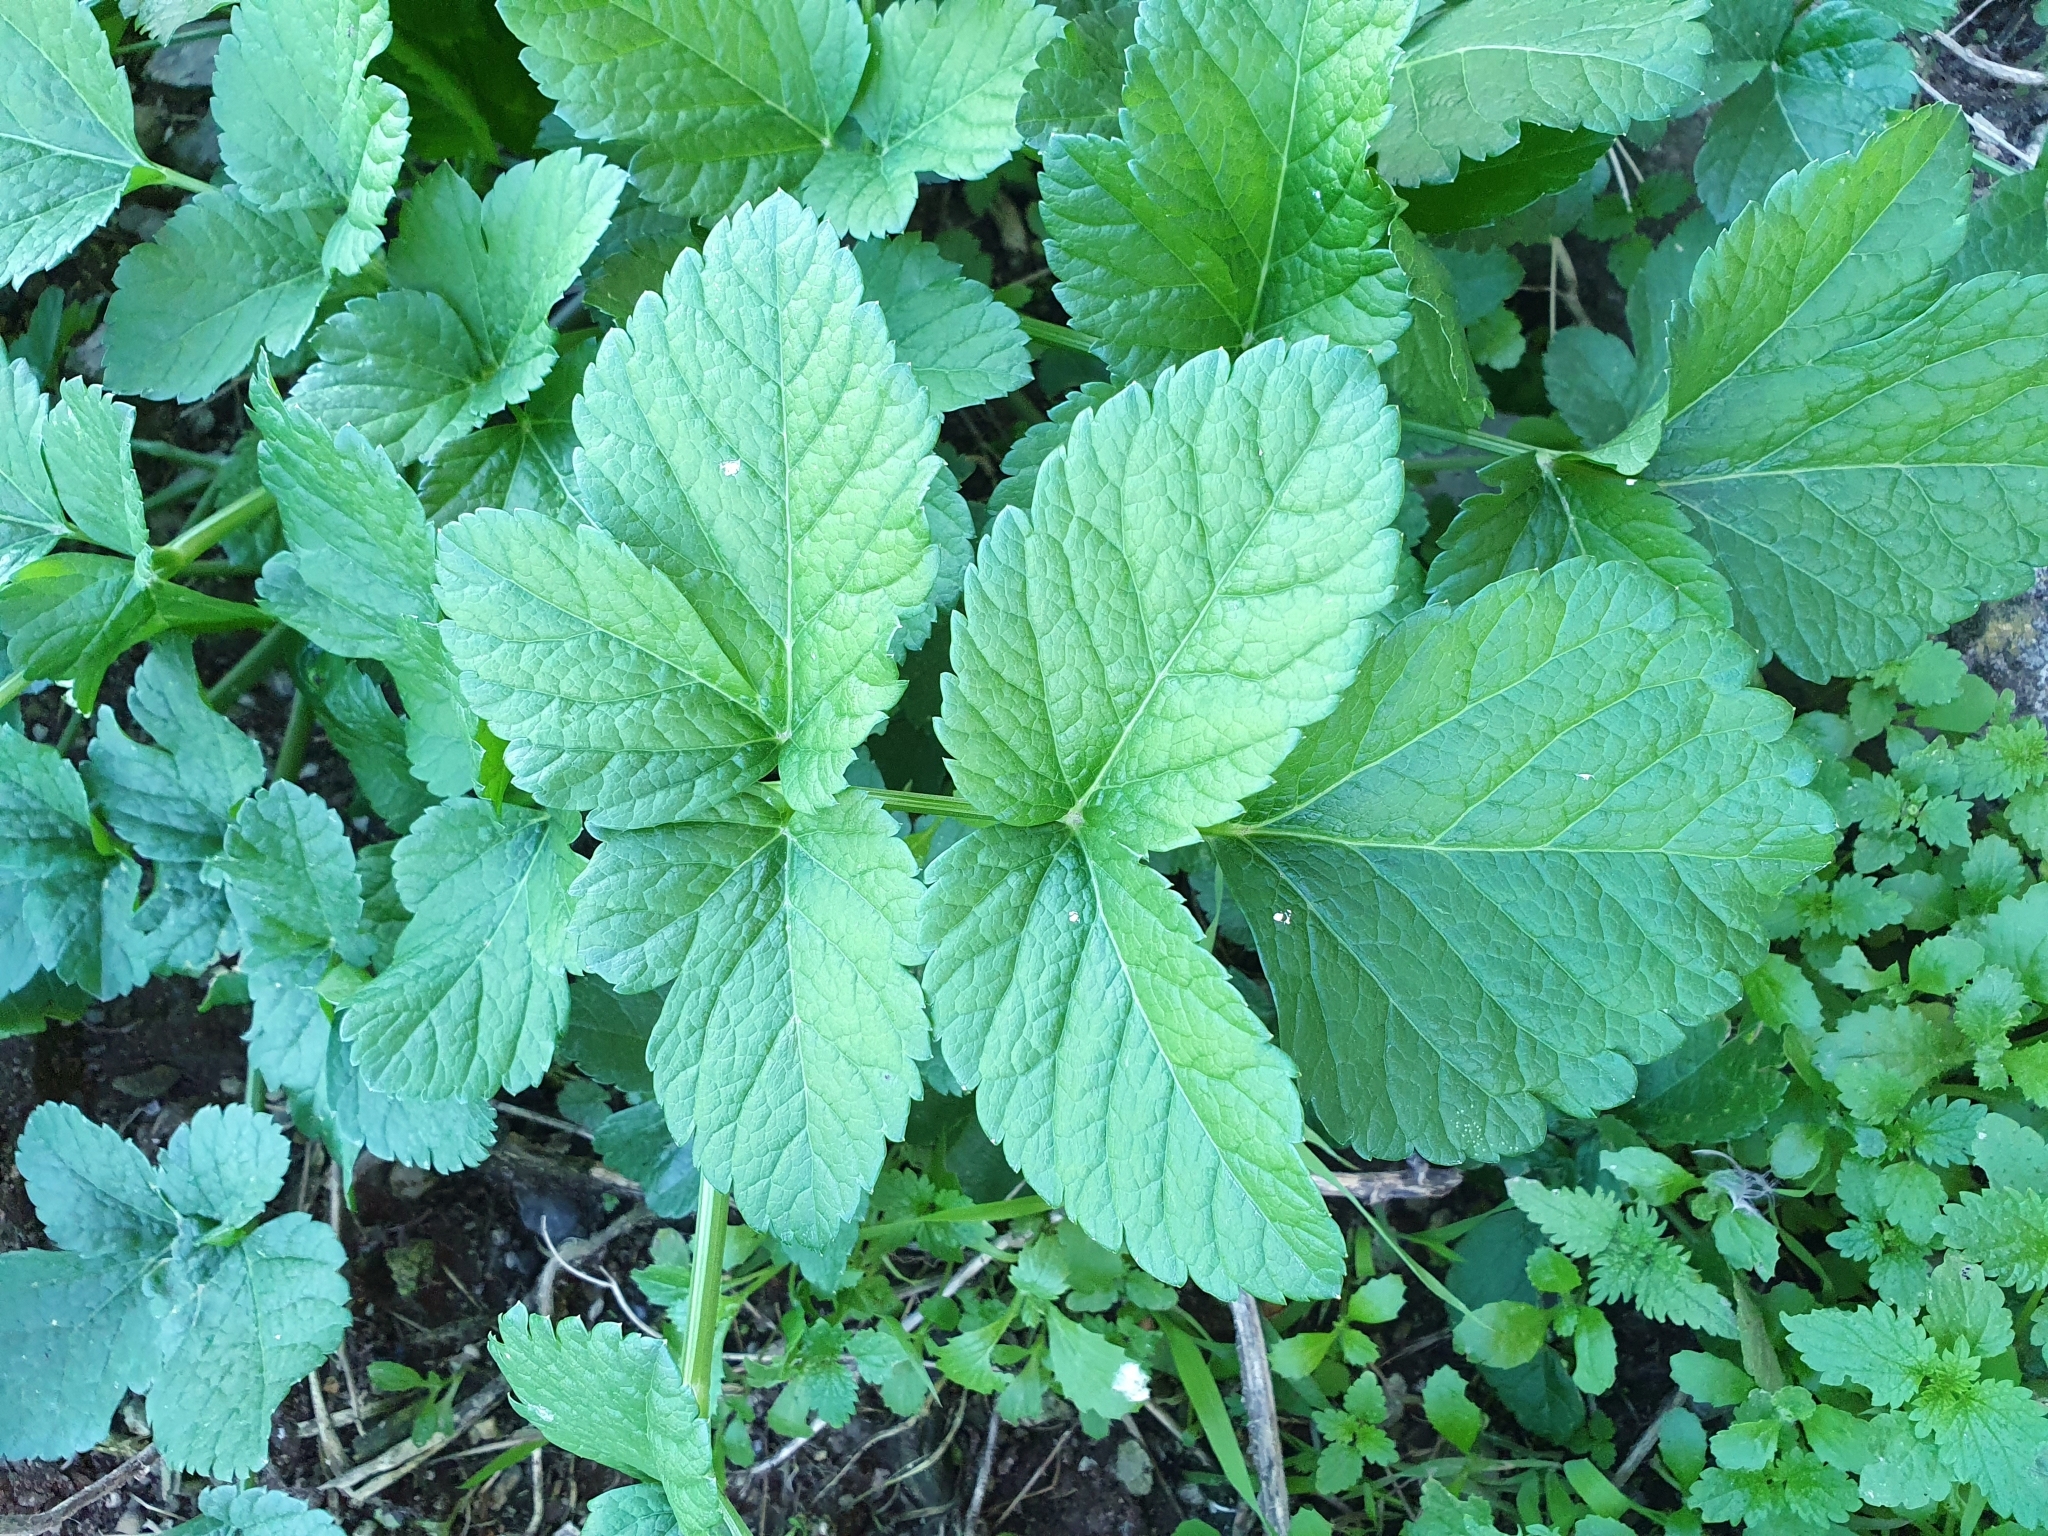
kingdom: Plantae
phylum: Tracheophyta
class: Magnoliopsida
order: Apiales
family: Apiaceae
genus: Smyrnium
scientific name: Smyrnium olusatrum
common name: Alexanders
